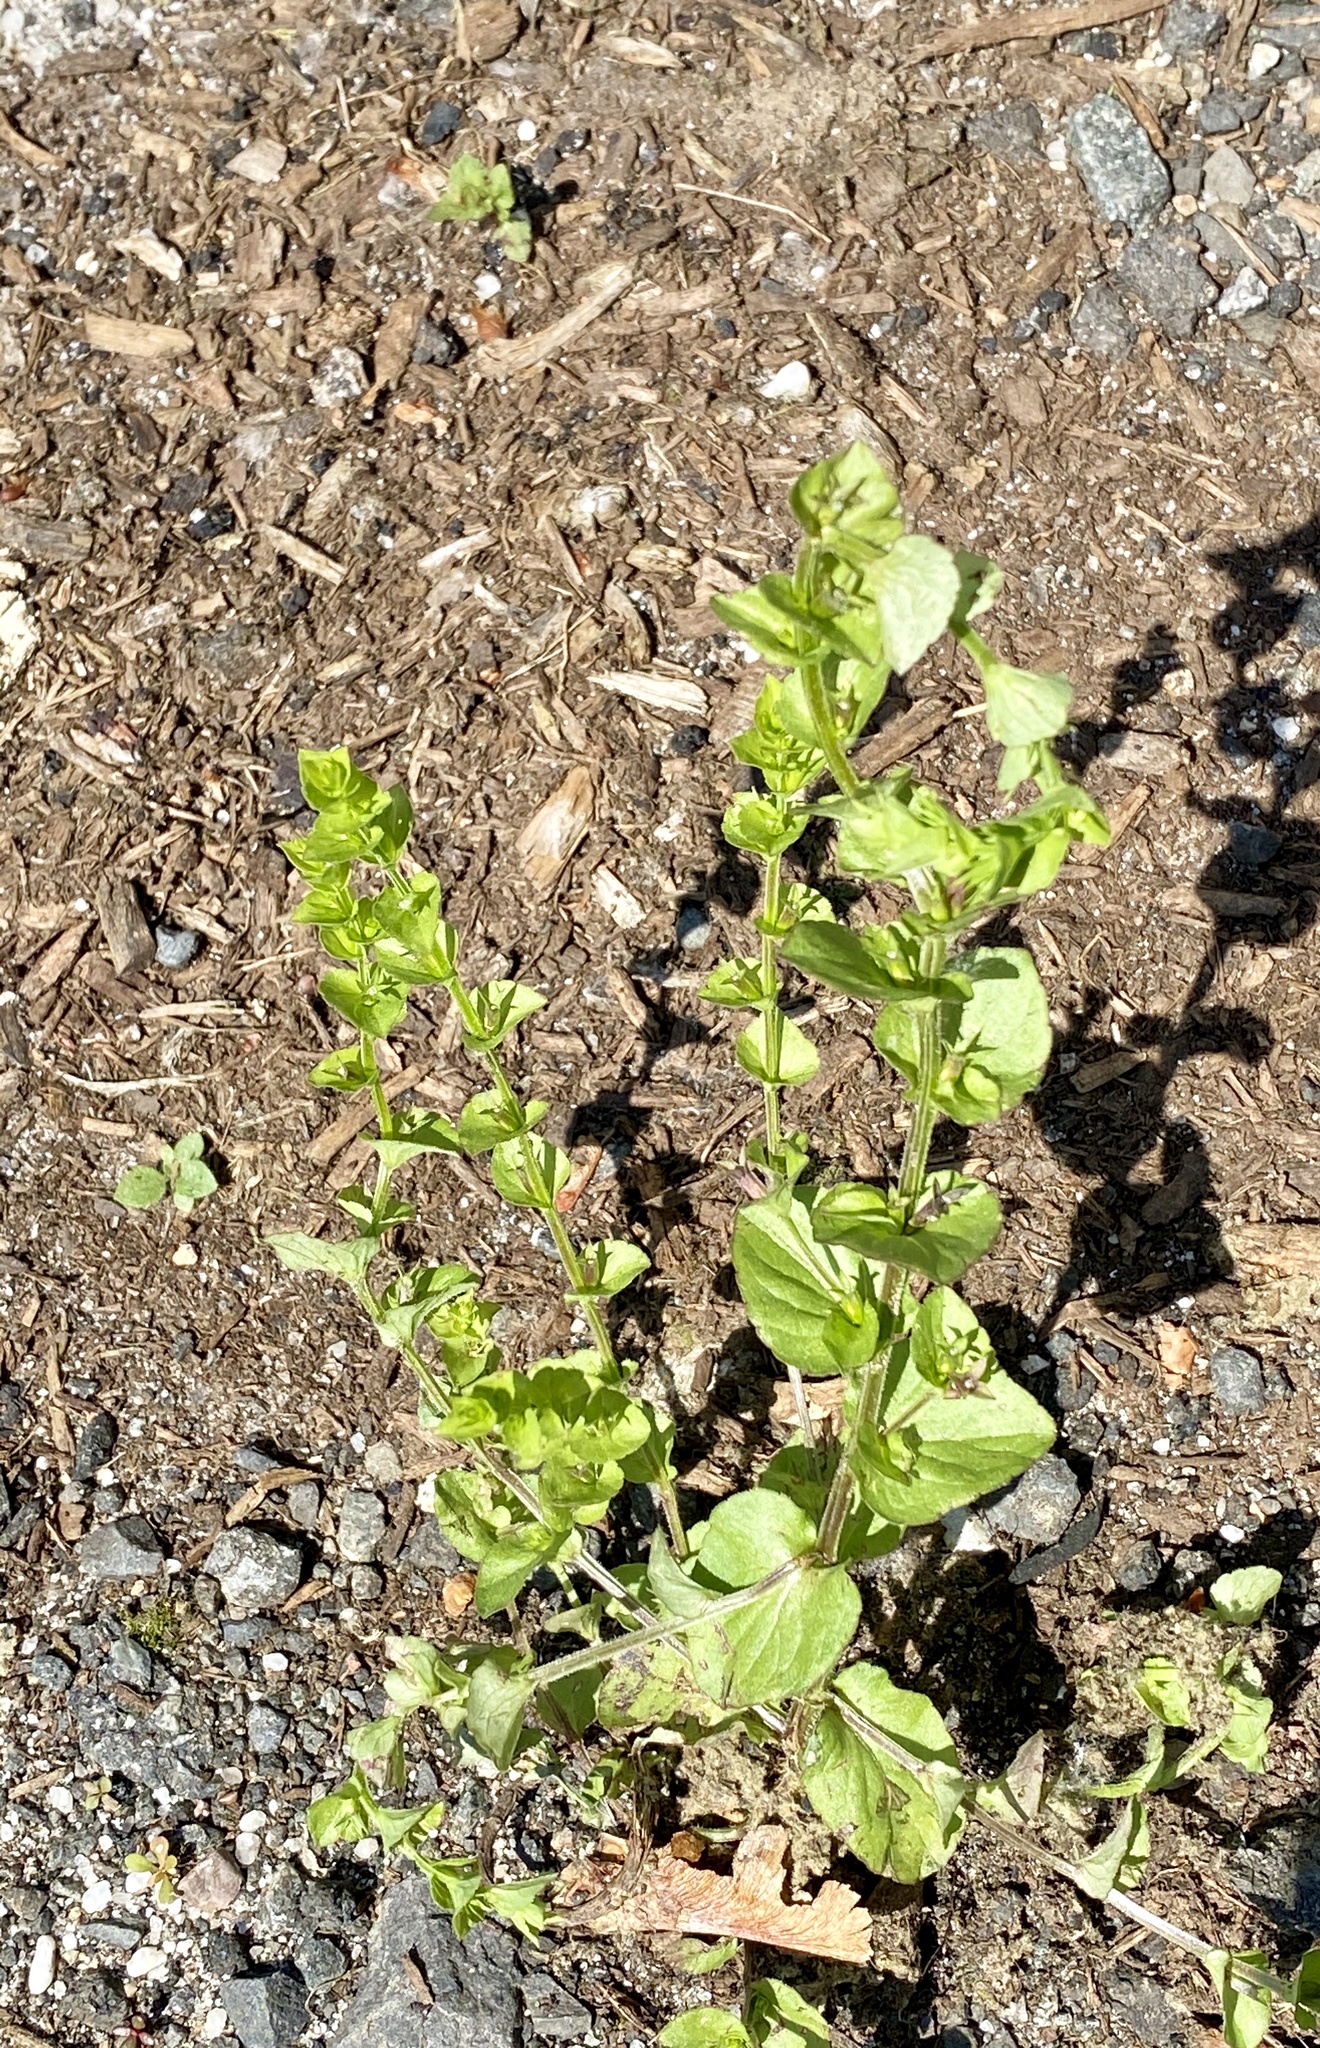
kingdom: Plantae
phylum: Tracheophyta
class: Magnoliopsida
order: Asterales
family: Campanulaceae
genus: Triodanis
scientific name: Triodanis perfoliata
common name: Clasping venus' looking-glass
